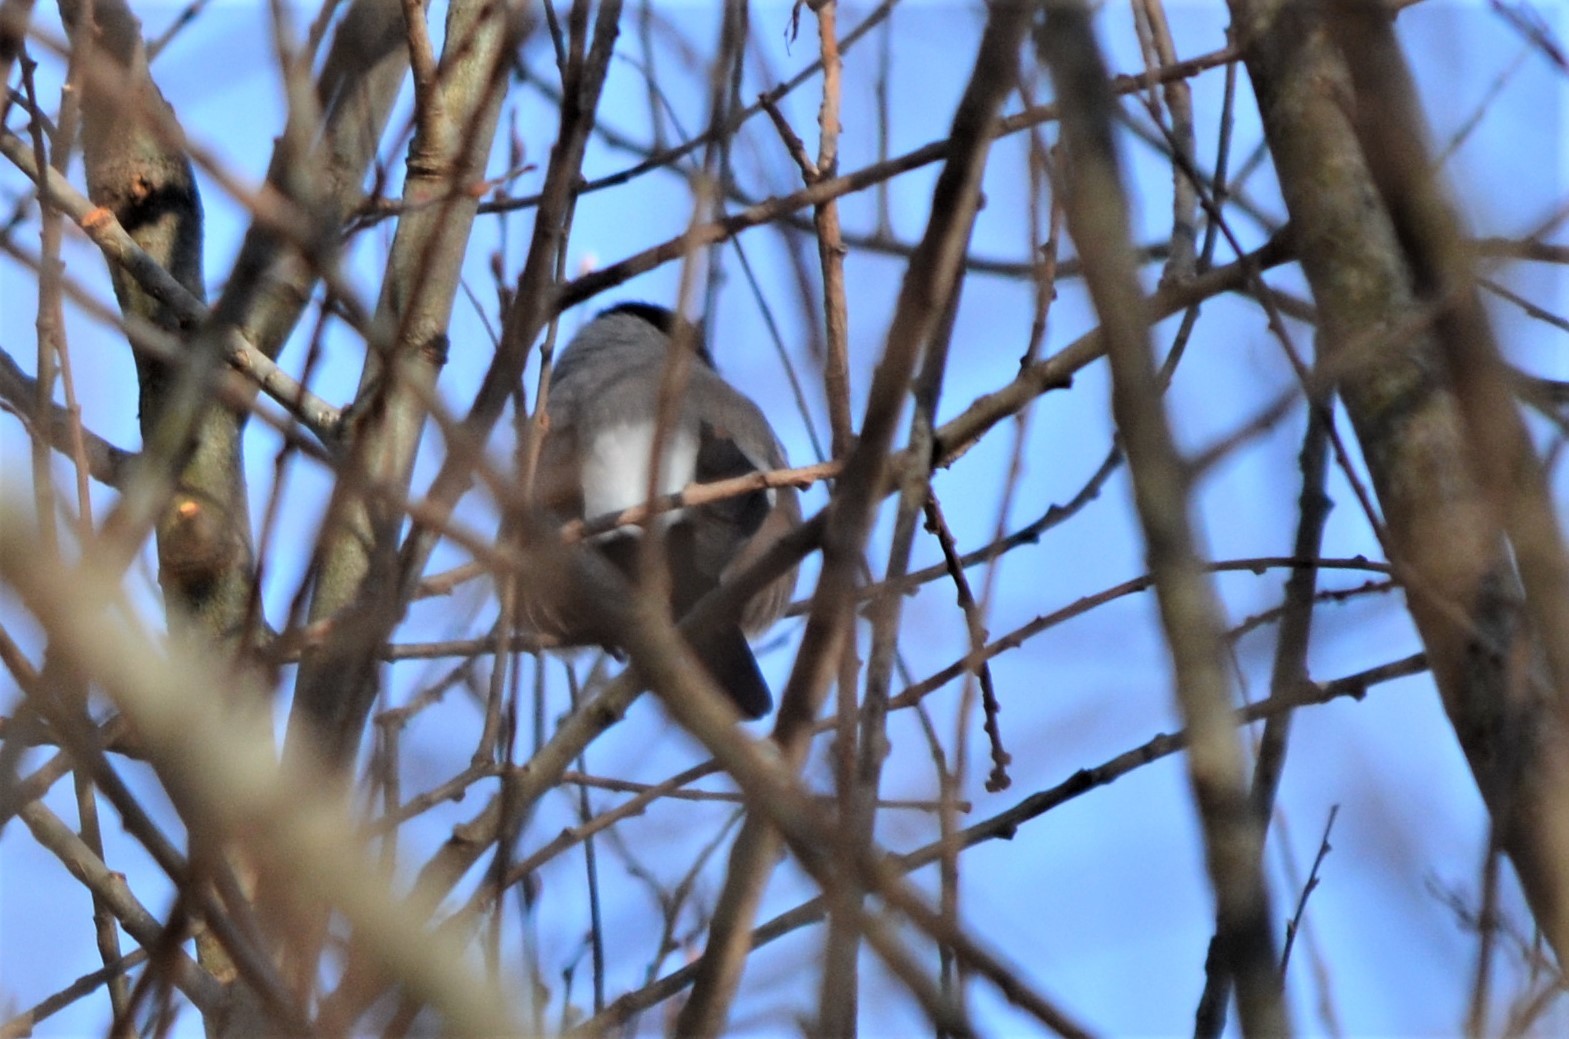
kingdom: Animalia
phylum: Chordata
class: Aves
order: Passeriformes
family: Fringillidae
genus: Pyrrhula
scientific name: Pyrrhula pyrrhula
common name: Eurasian bullfinch
